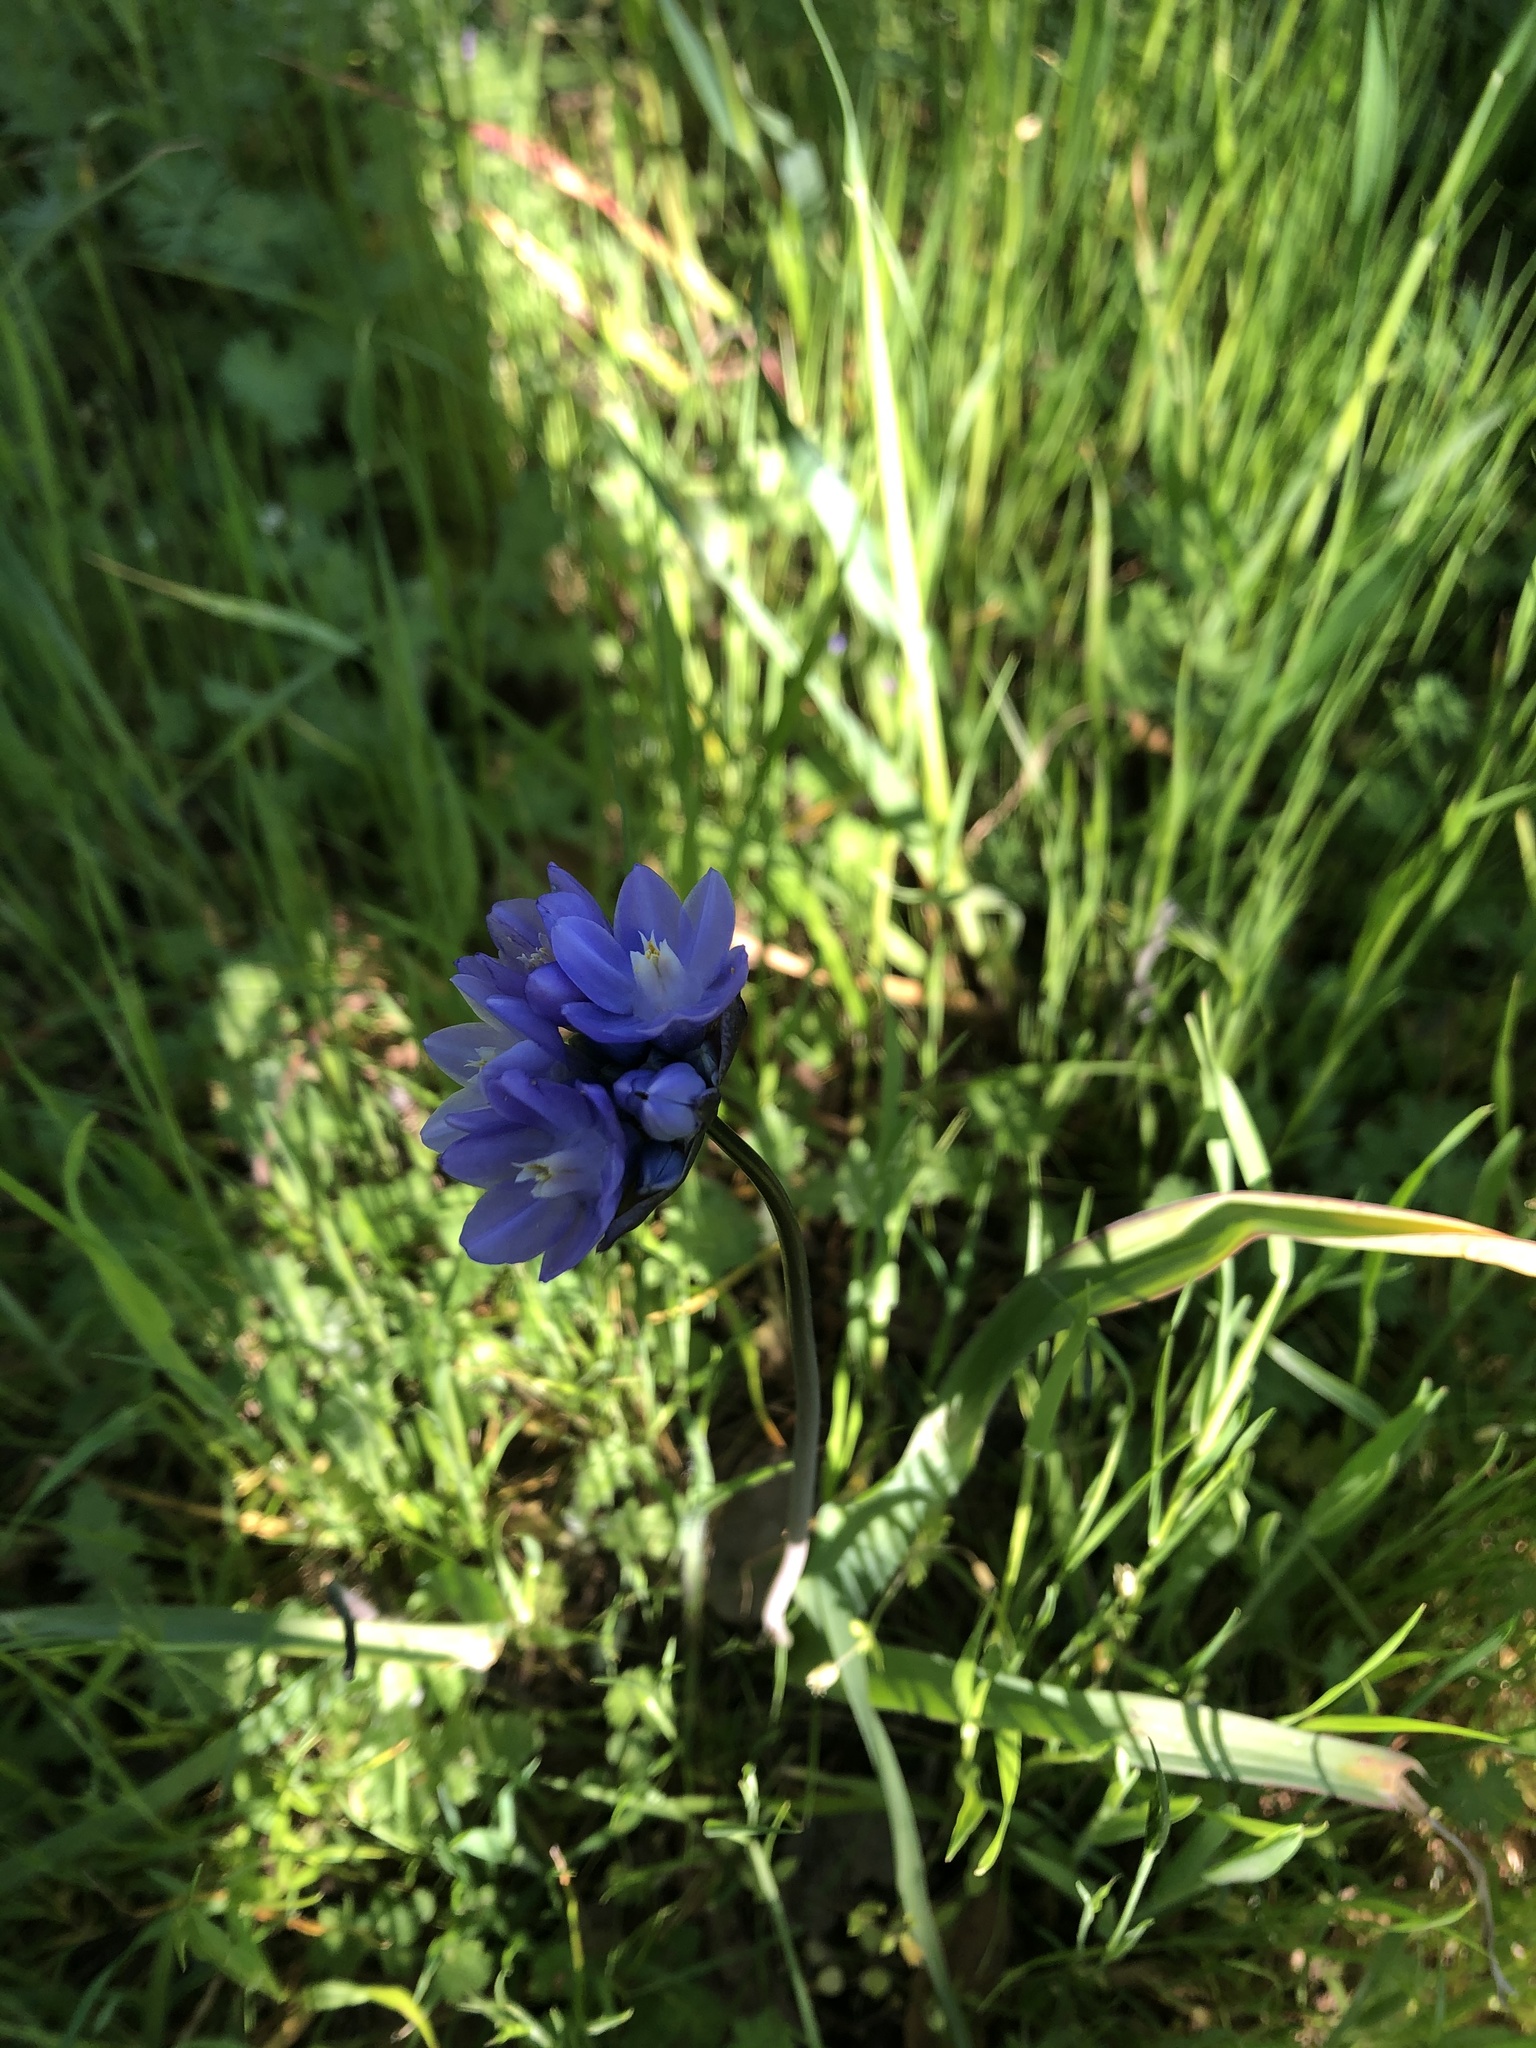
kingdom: Plantae
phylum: Tracheophyta
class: Liliopsida
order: Asparagales
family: Asparagaceae
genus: Dipterostemon
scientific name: Dipterostemon capitatus
